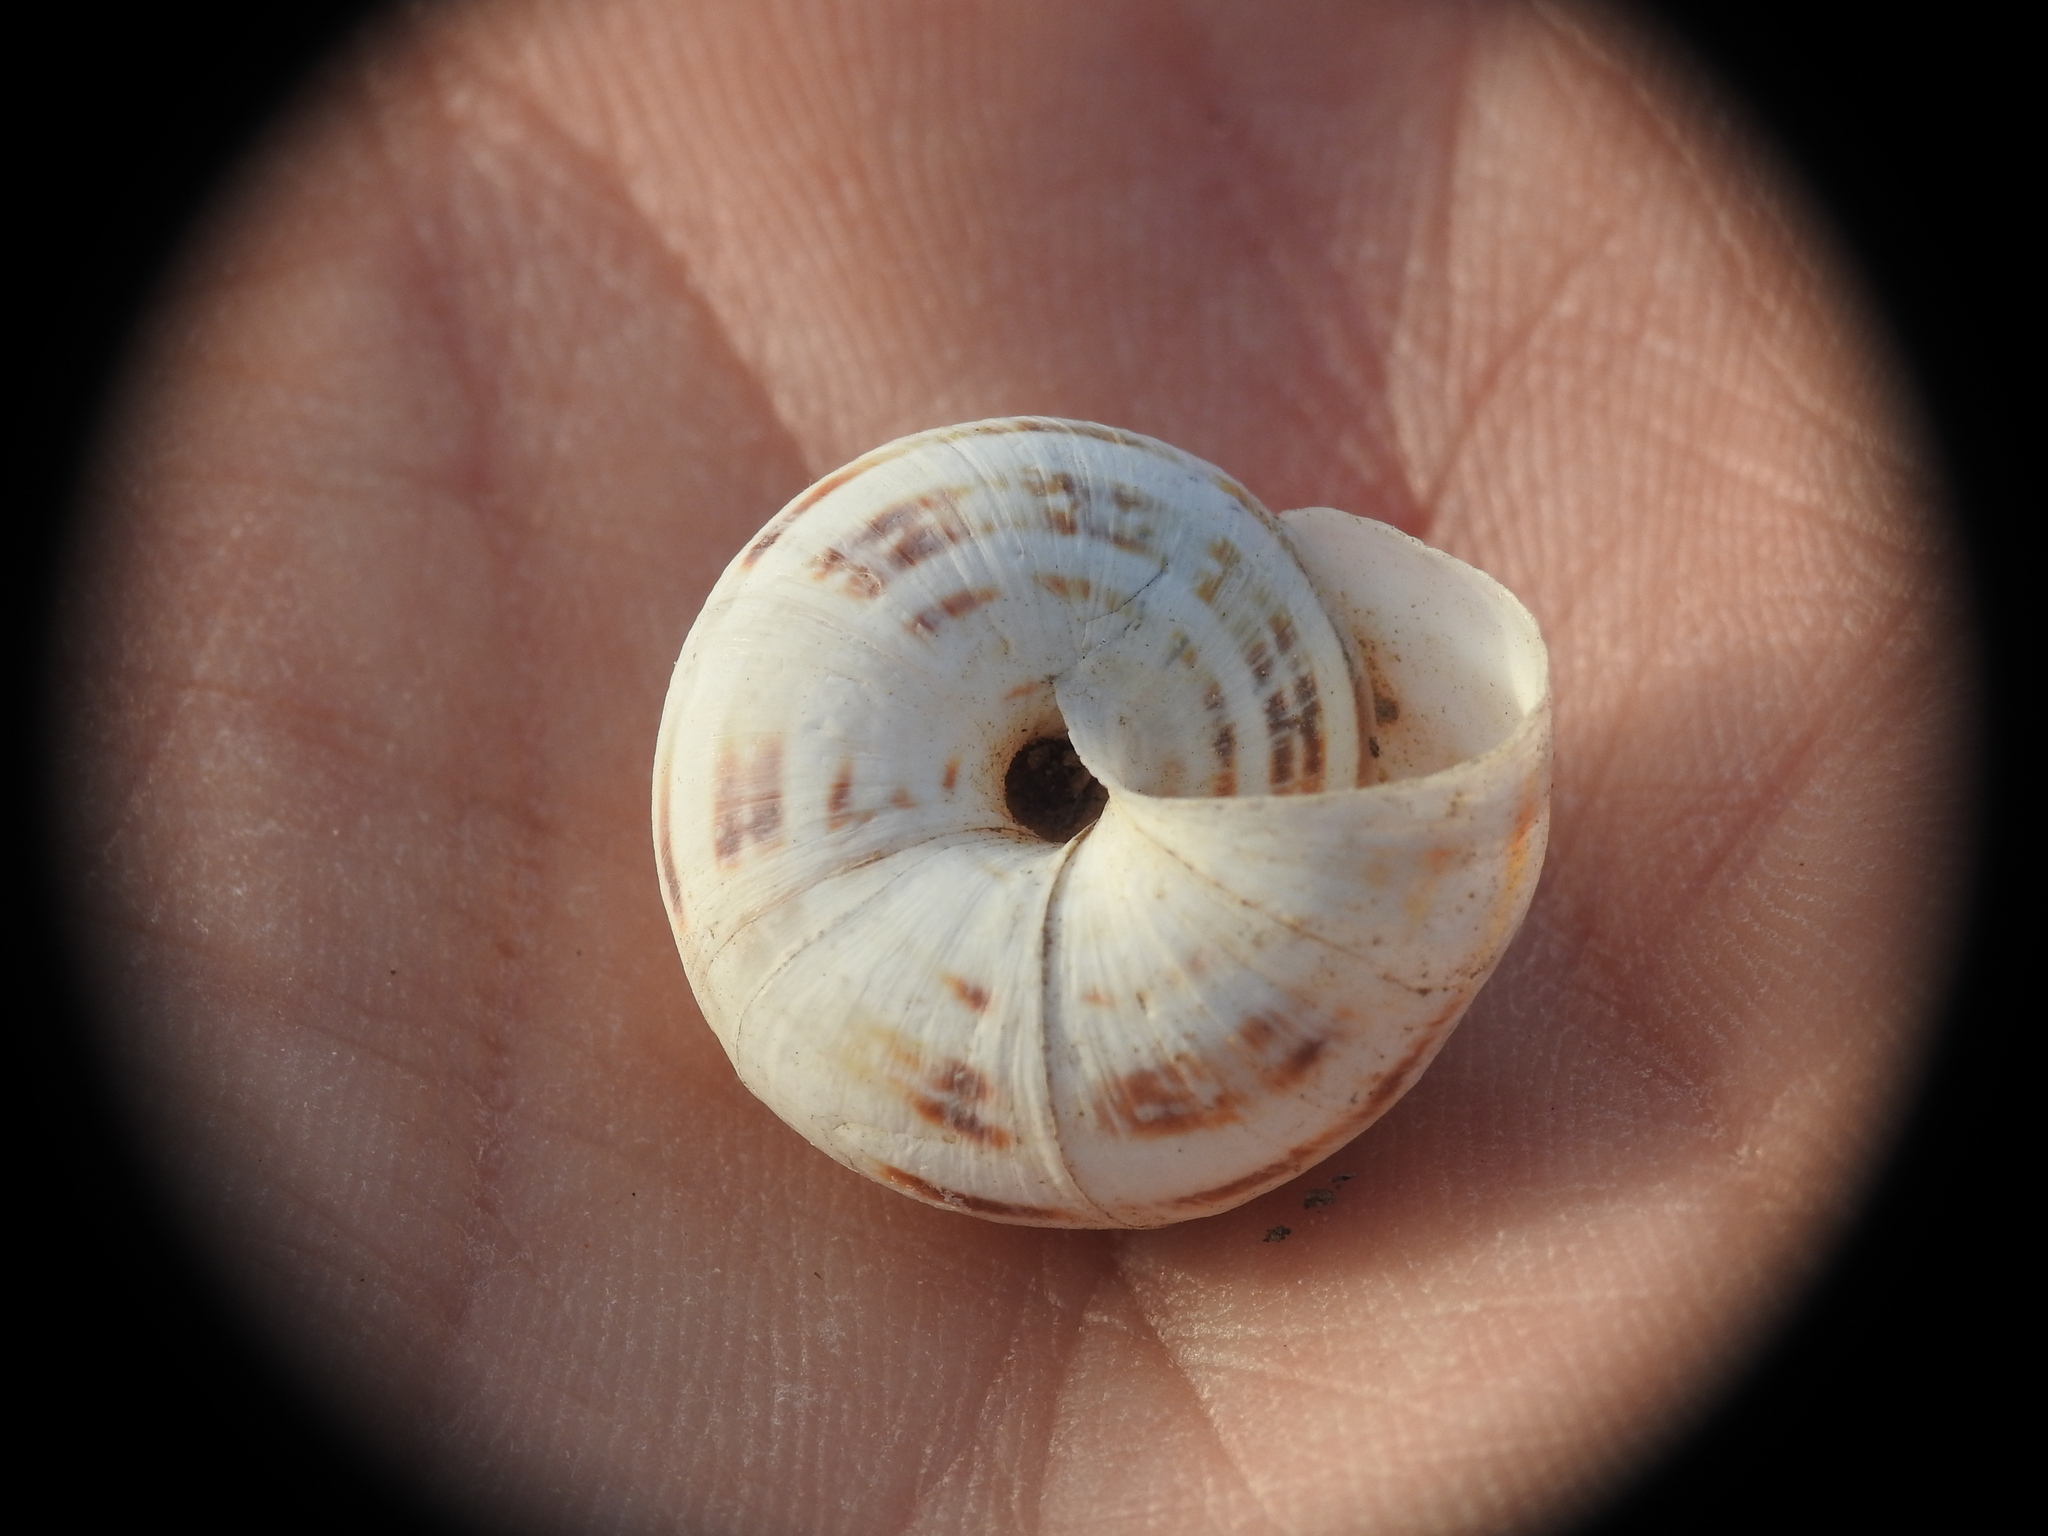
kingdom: Animalia
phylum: Mollusca
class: Gastropoda
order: Stylommatophora
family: Geomitridae
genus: Xerocrassa
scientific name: Xerocrassa cretica
